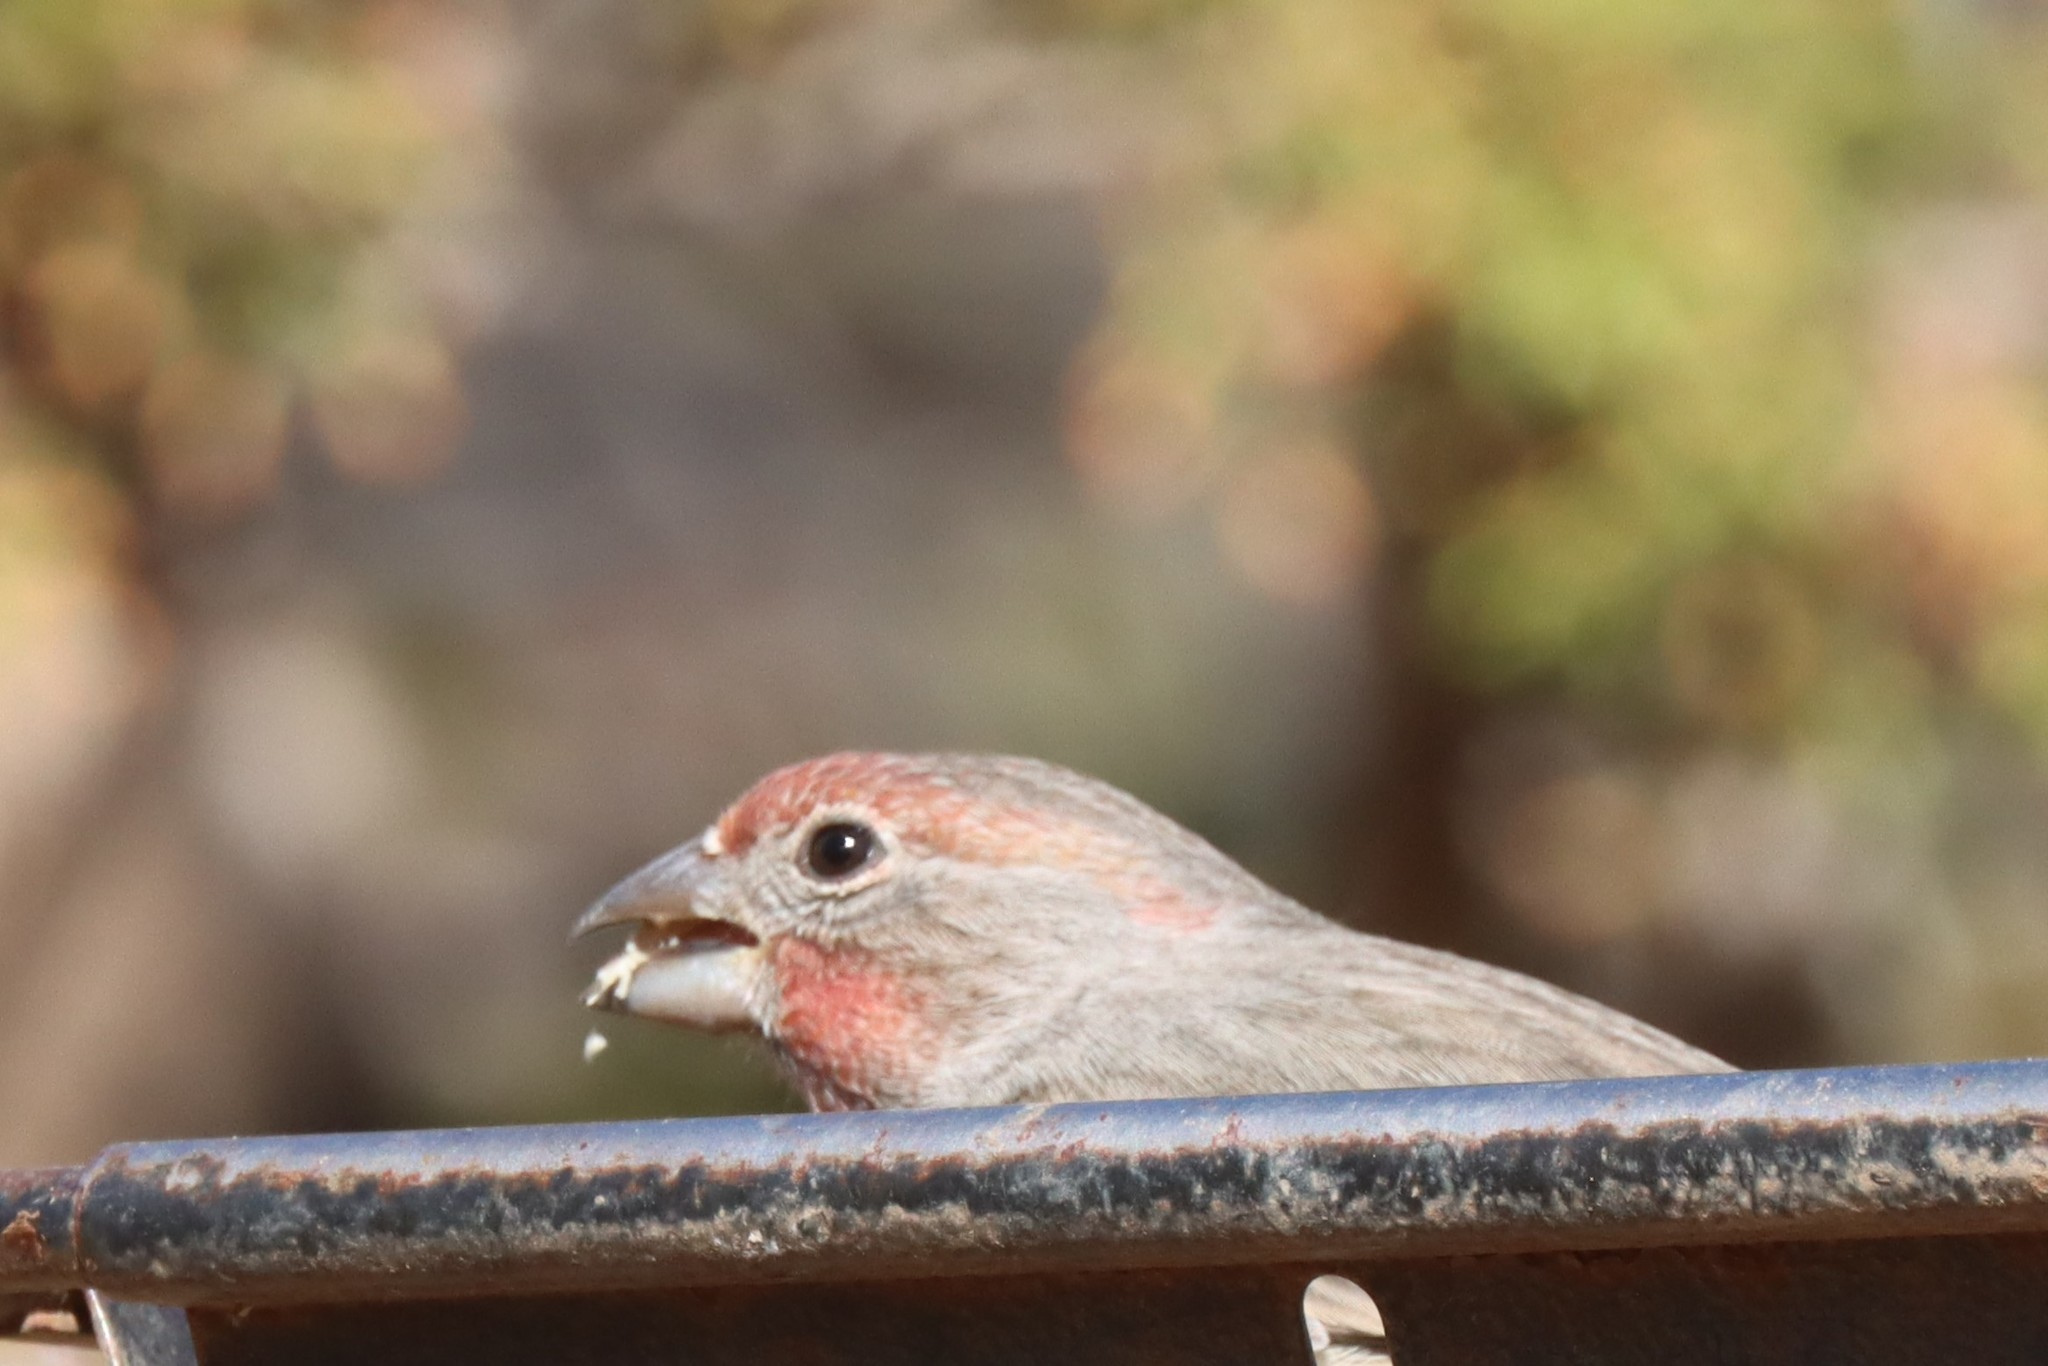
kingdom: Animalia
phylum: Chordata
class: Aves
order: Passeriformes
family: Fringillidae
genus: Haemorhous
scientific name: Haemorhous mexicanus
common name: House finch
